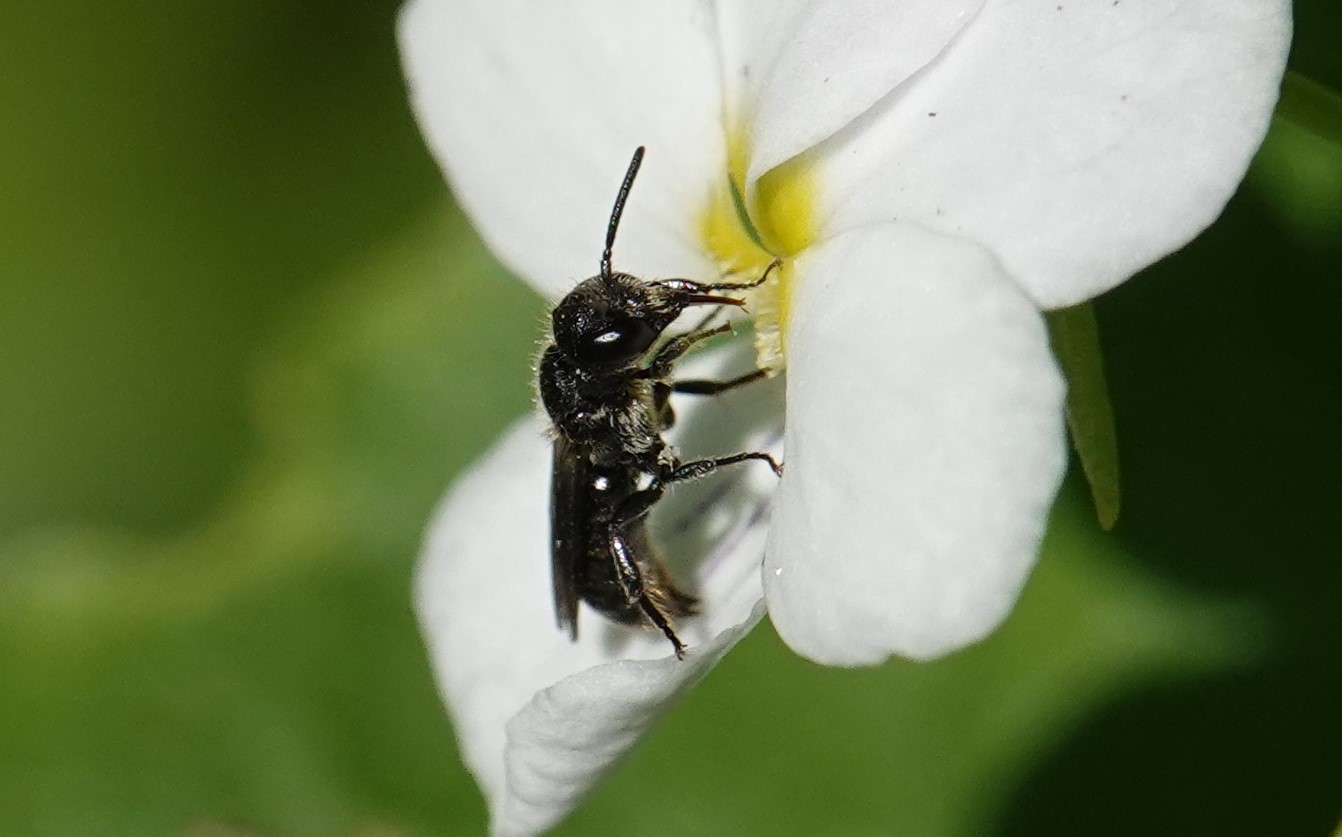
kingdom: Animalia
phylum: Arthropoda
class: Insecta
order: Hymenoptera
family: Megachilidae
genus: Chelostoma
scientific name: Chelostoma campanularum
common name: Small scissor bee
